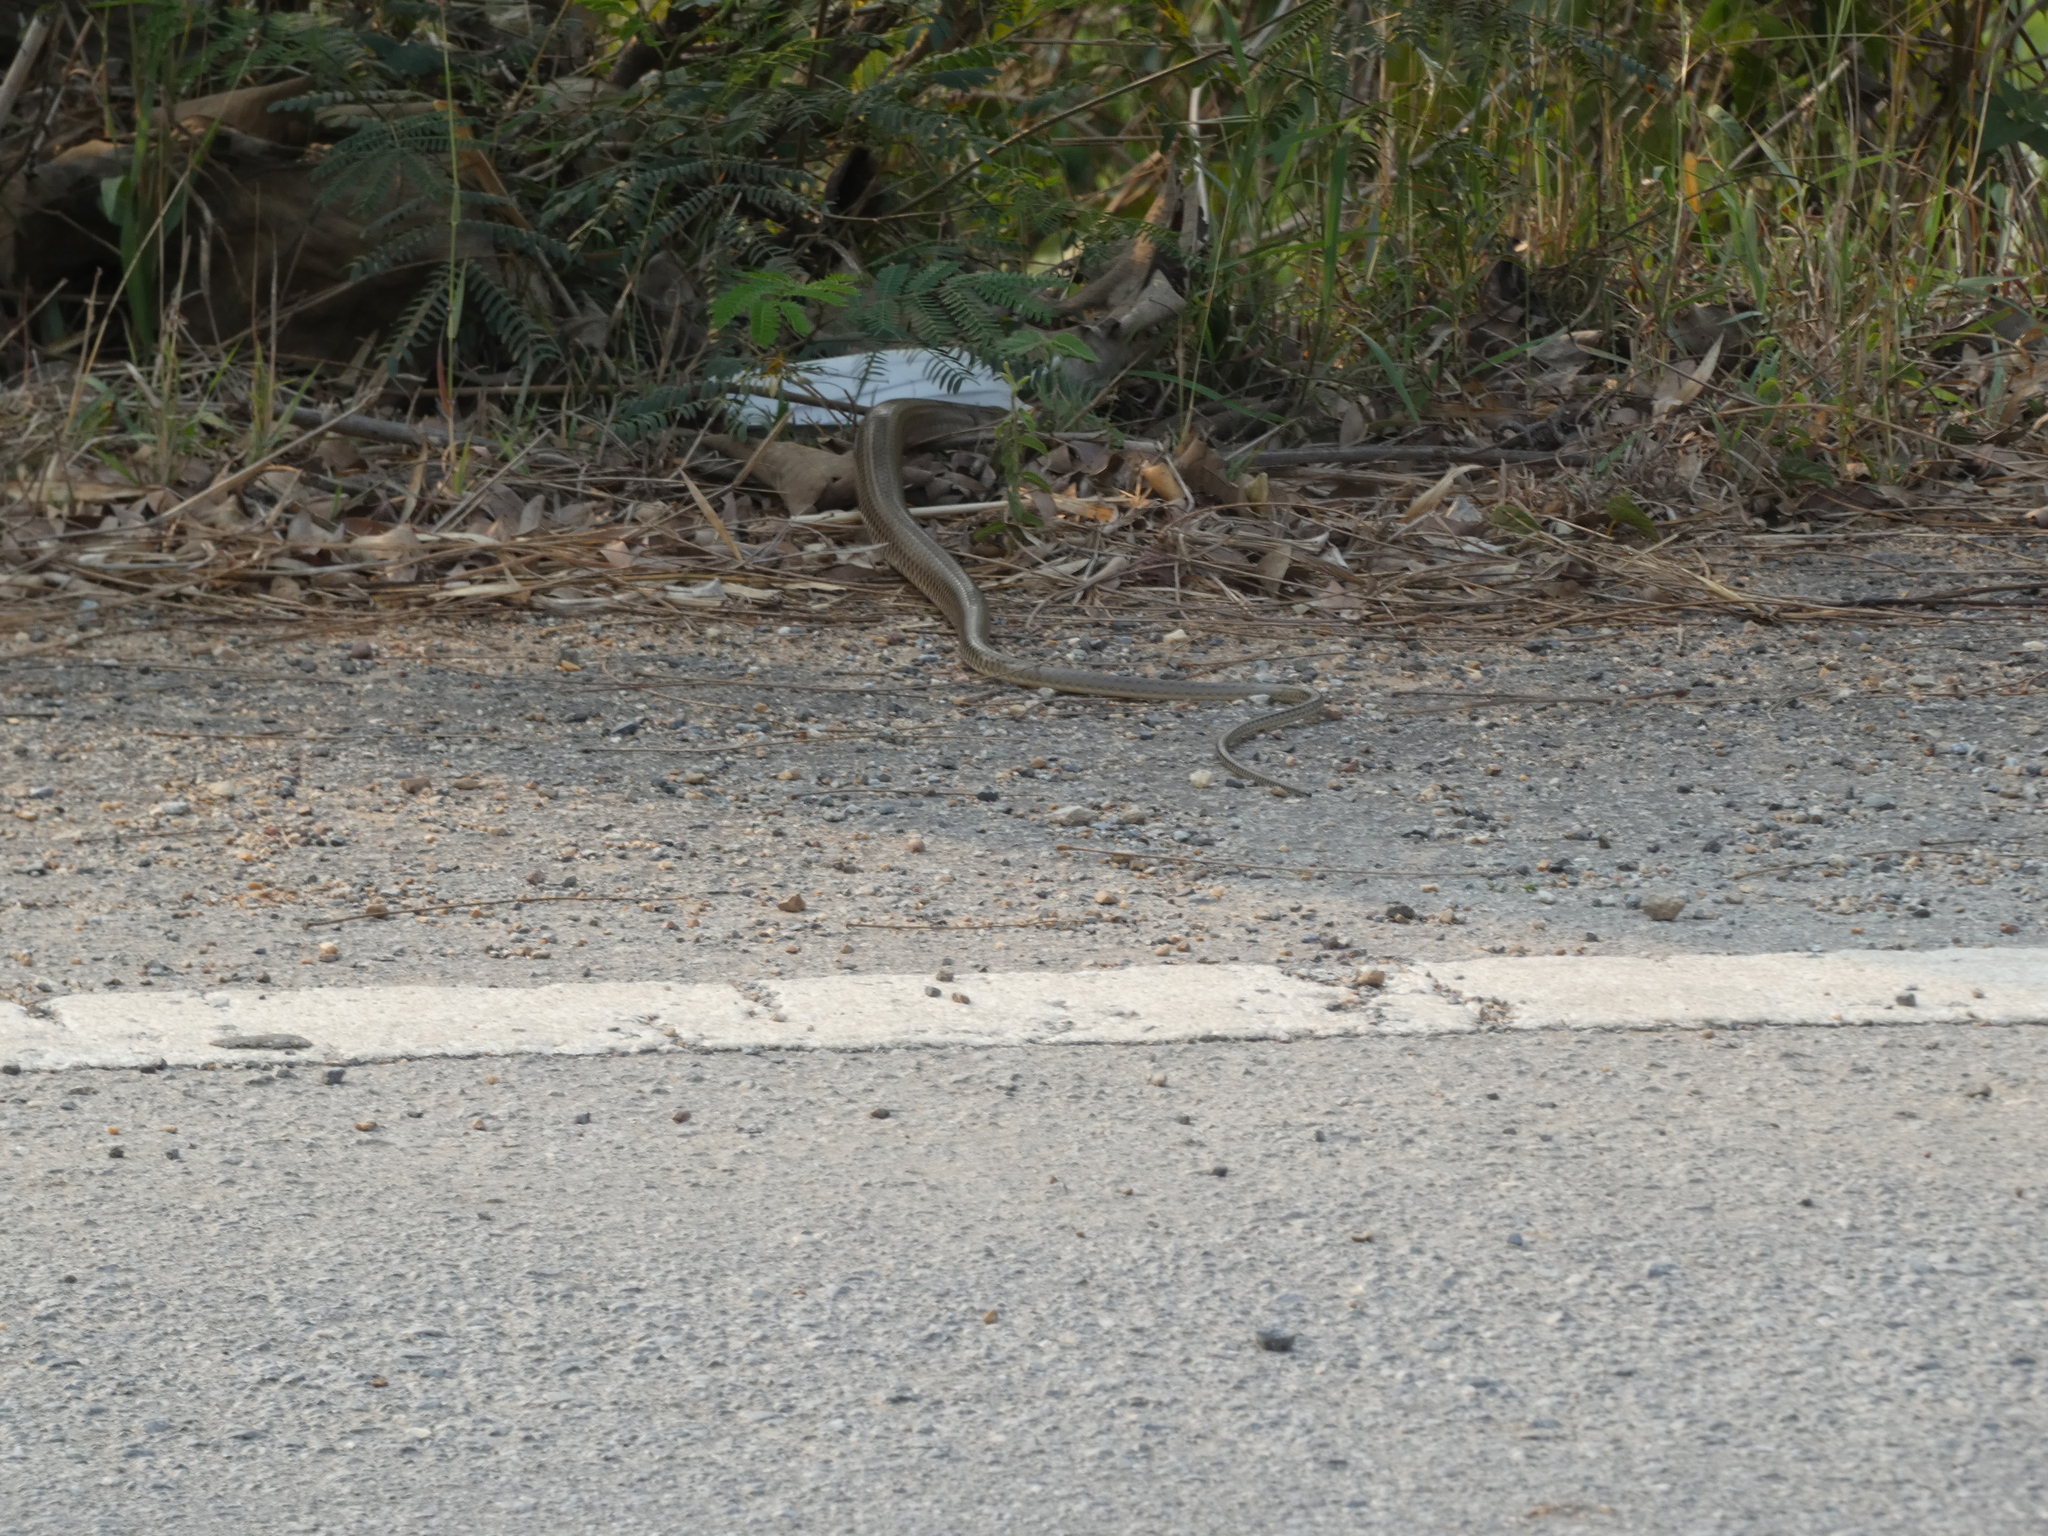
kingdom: Animalia
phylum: Chordata
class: Squamata
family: Colubridae
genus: Ptyas
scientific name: Ptyas korros
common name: Indo-chinese rat snake
